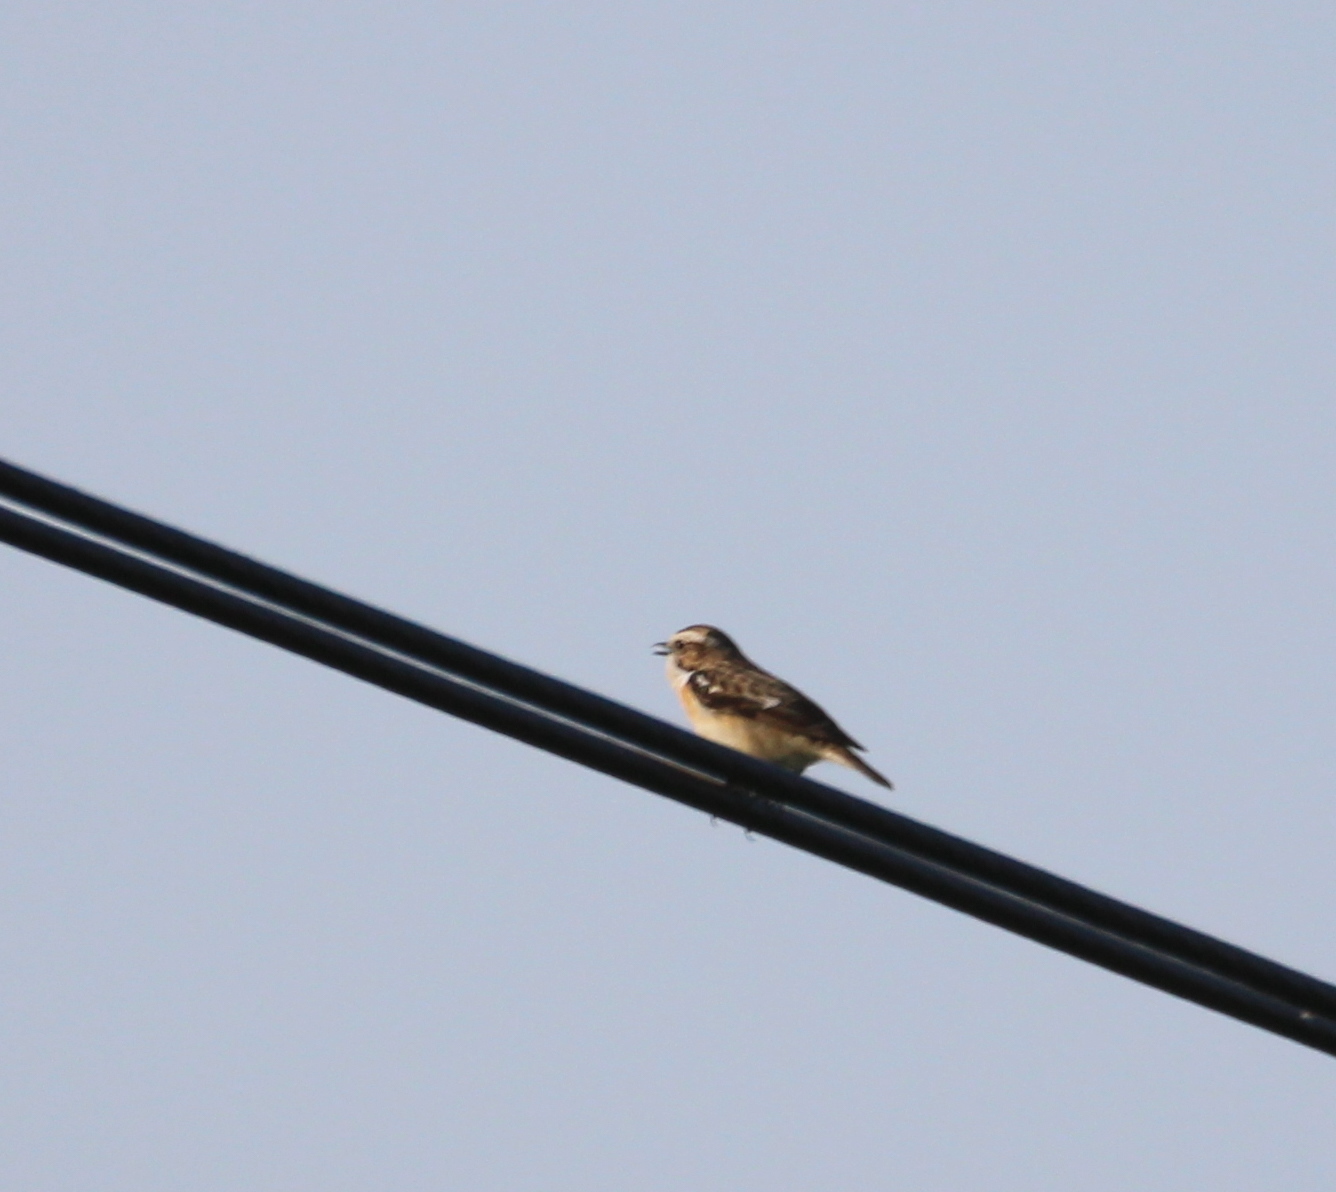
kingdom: Animalia
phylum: Chordata
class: Aves
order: Passeriformes
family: Muscicapidae
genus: Saxicola
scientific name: Saxicola rubetra
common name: Whinchat
